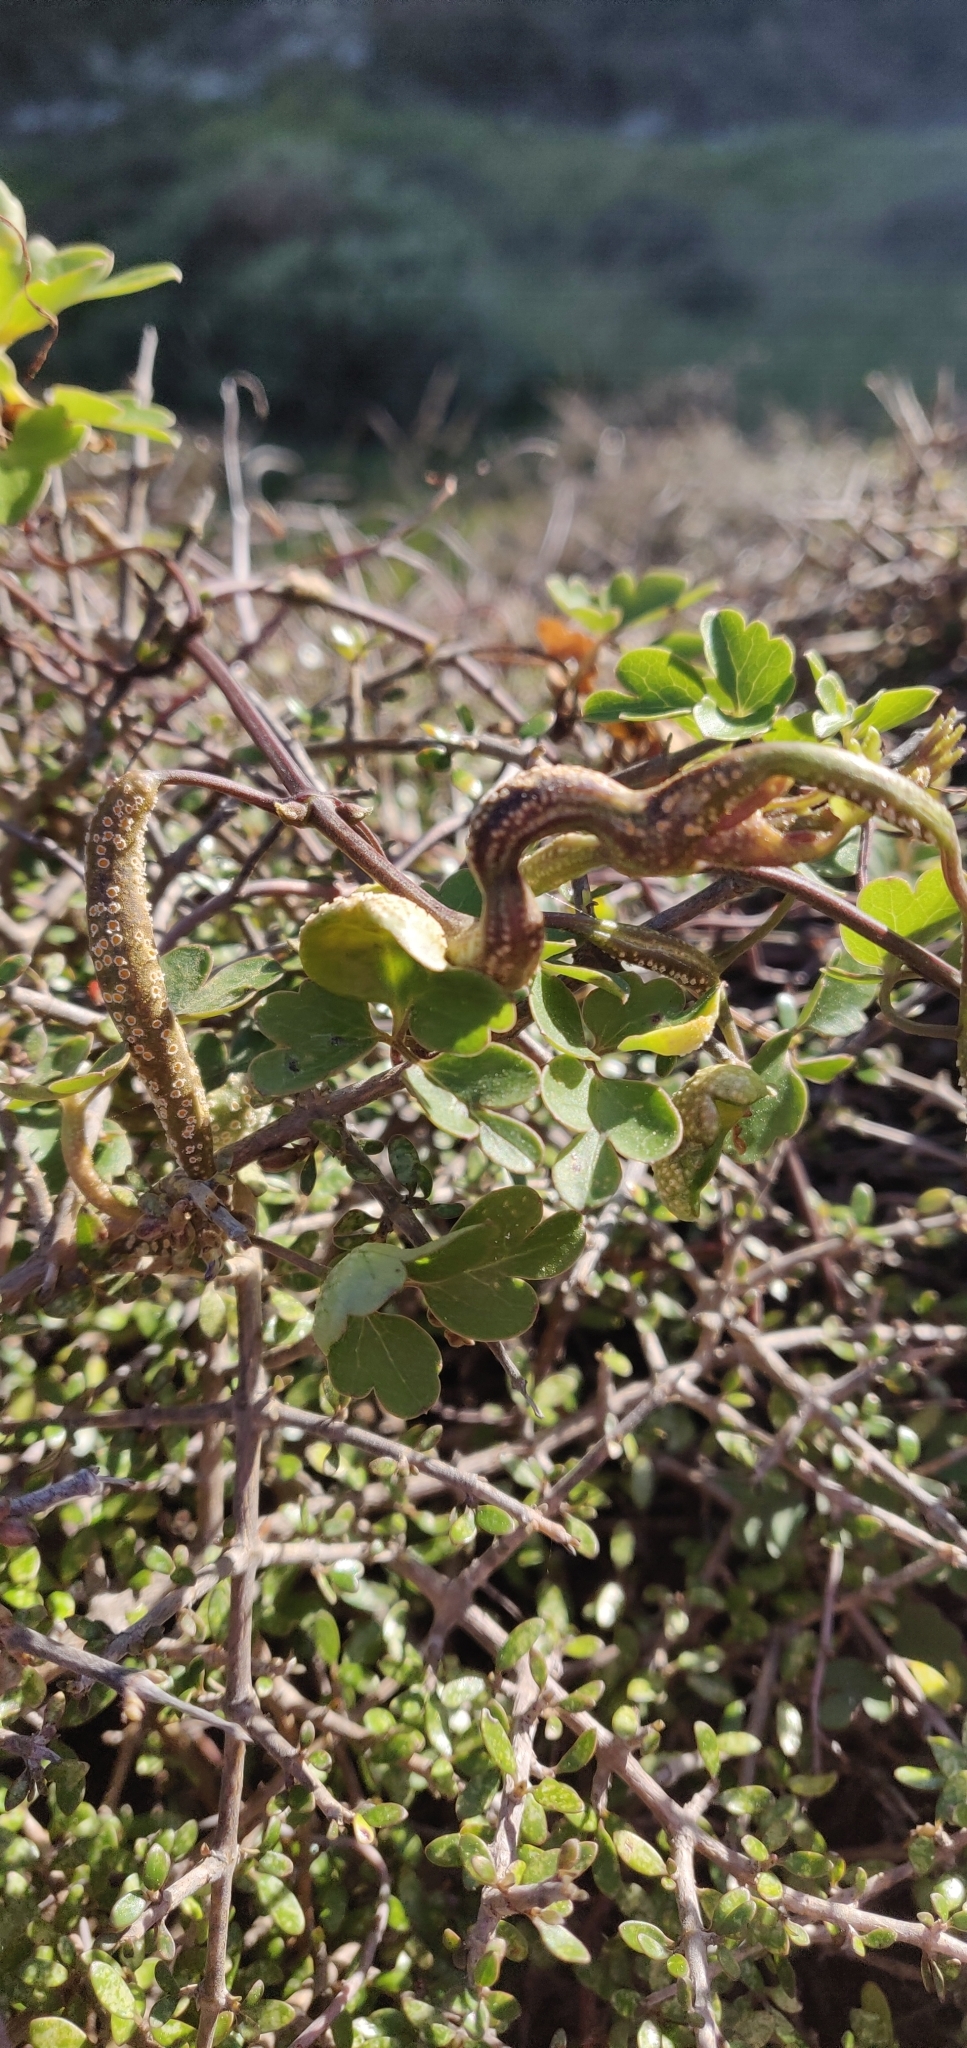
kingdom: Fungi
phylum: Basidiomycota
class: Pucciniomycetes
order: Pucciniales
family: Pucciniaceae
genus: Puccinia
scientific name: Puccinia otagensis
